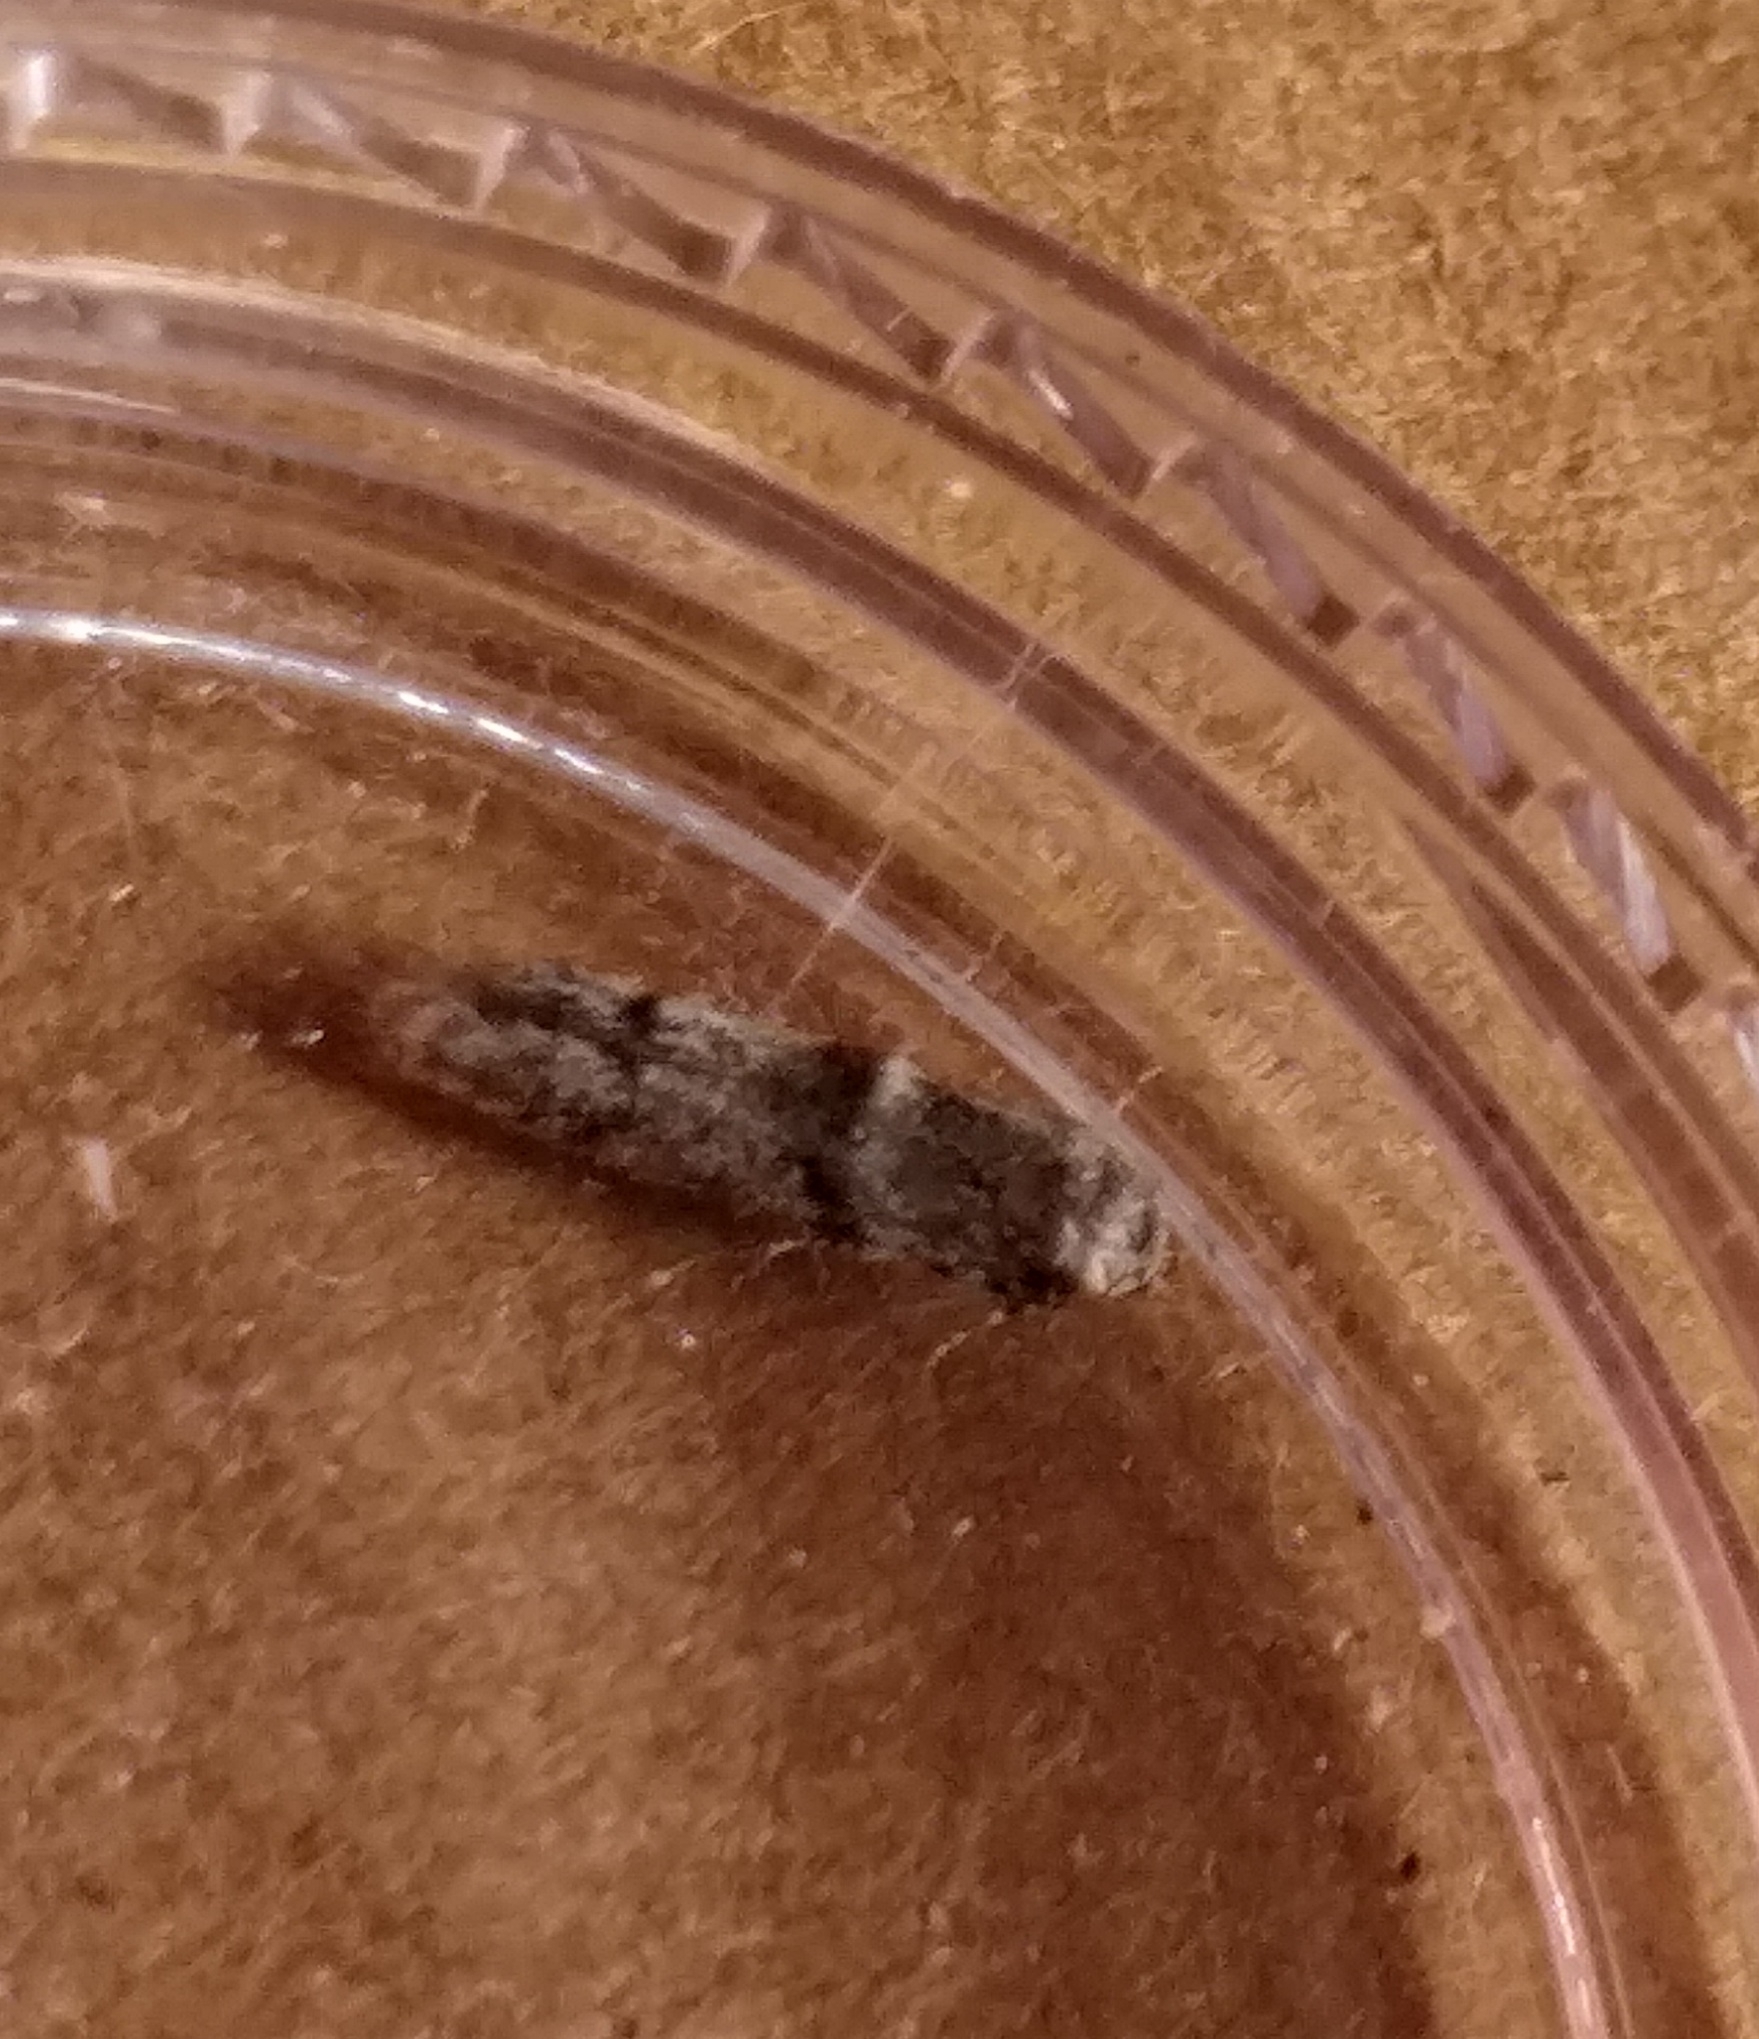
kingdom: Animalia
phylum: Arthropoda
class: Insecta
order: Lepidoptera
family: Blastobasidae
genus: Blastobasis
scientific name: Blastobasis rebeli
